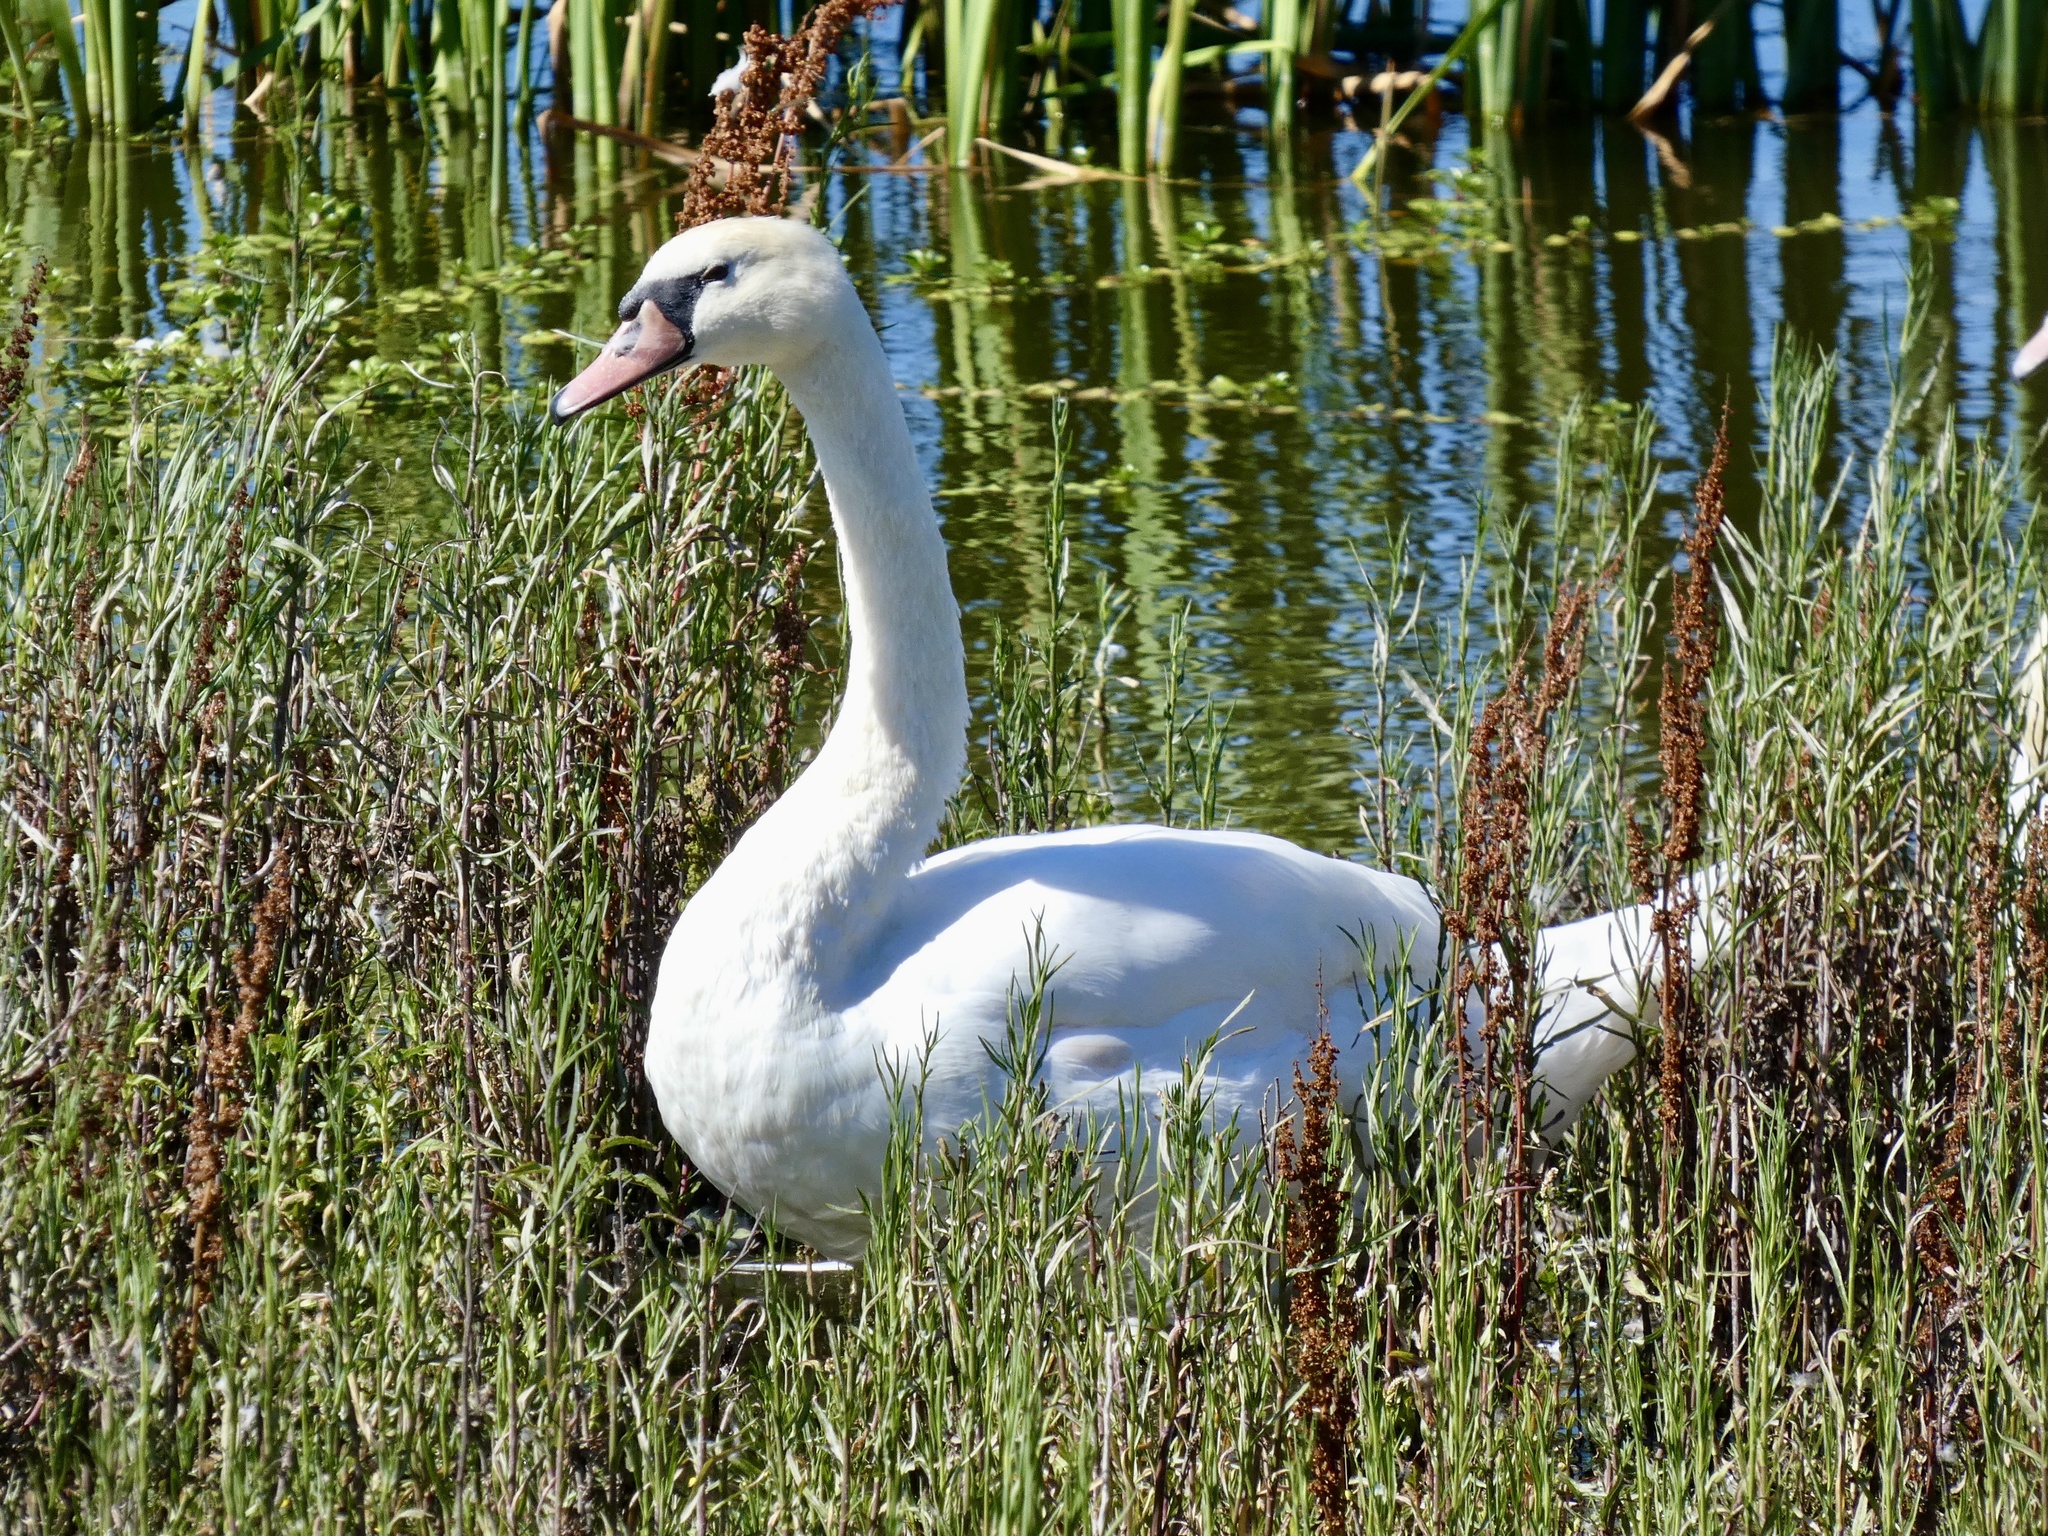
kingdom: Animalia
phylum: Chordata
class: Aves
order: Anseriformes
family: Anatidae
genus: Cygnus
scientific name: Cygnus olor
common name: Mute swan
